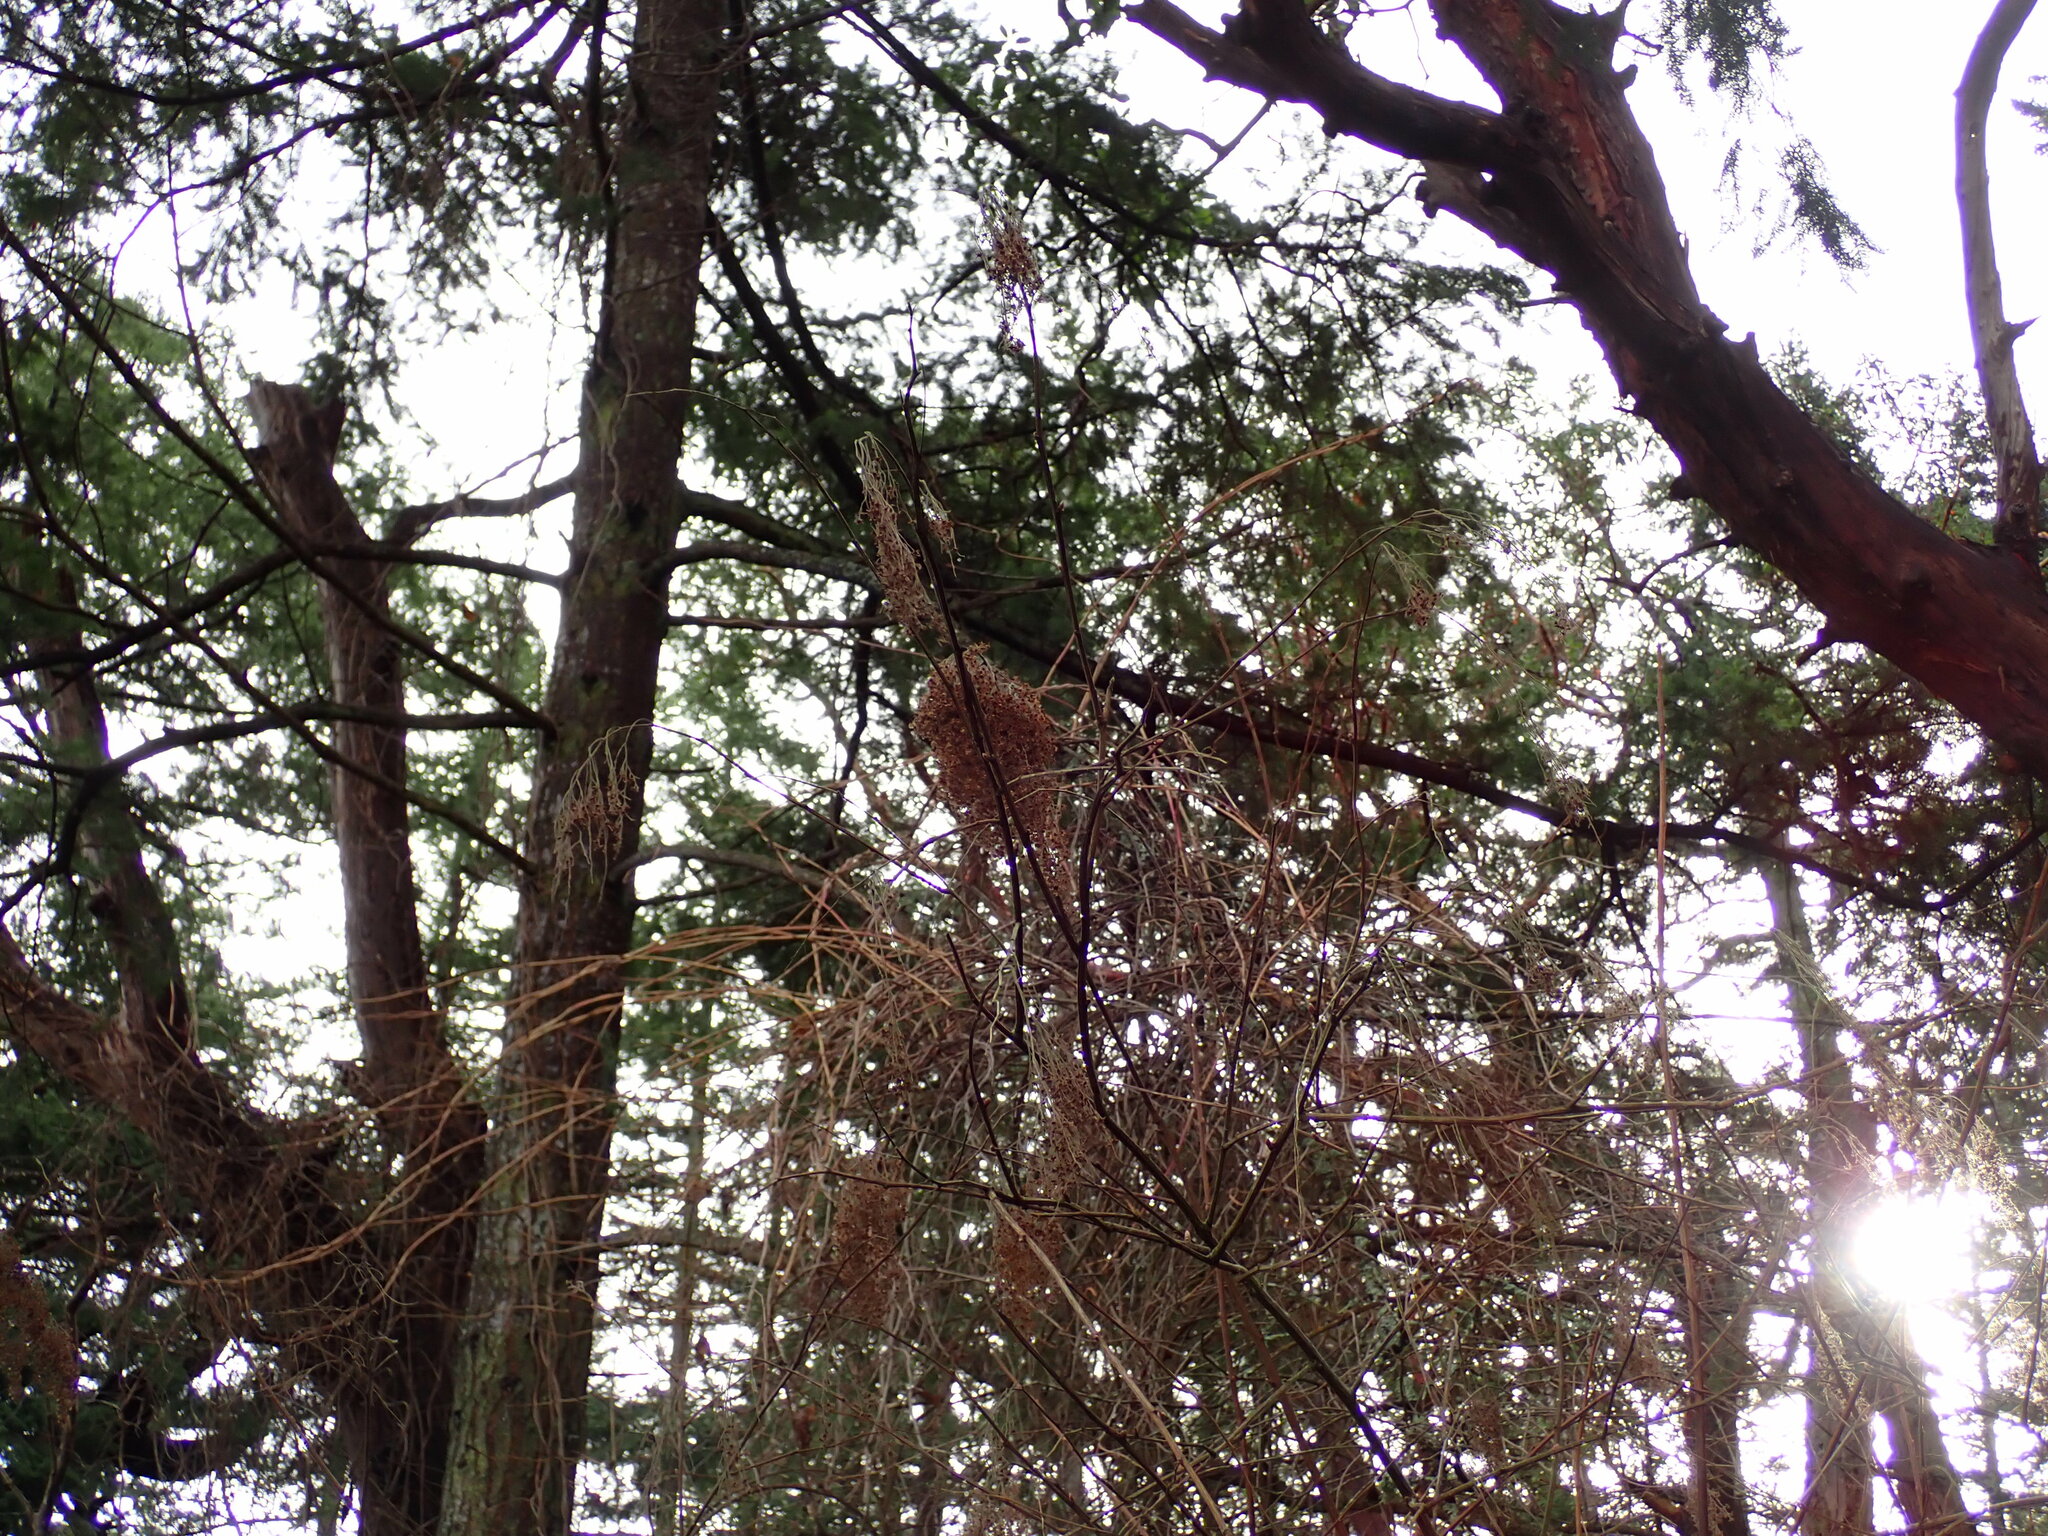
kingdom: Plantae
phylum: Tracheophyta
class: Magnoliopsida
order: Rosales
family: Rosaceae
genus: Holodiscus
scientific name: Holodiscus discolor
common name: Oceanspray
